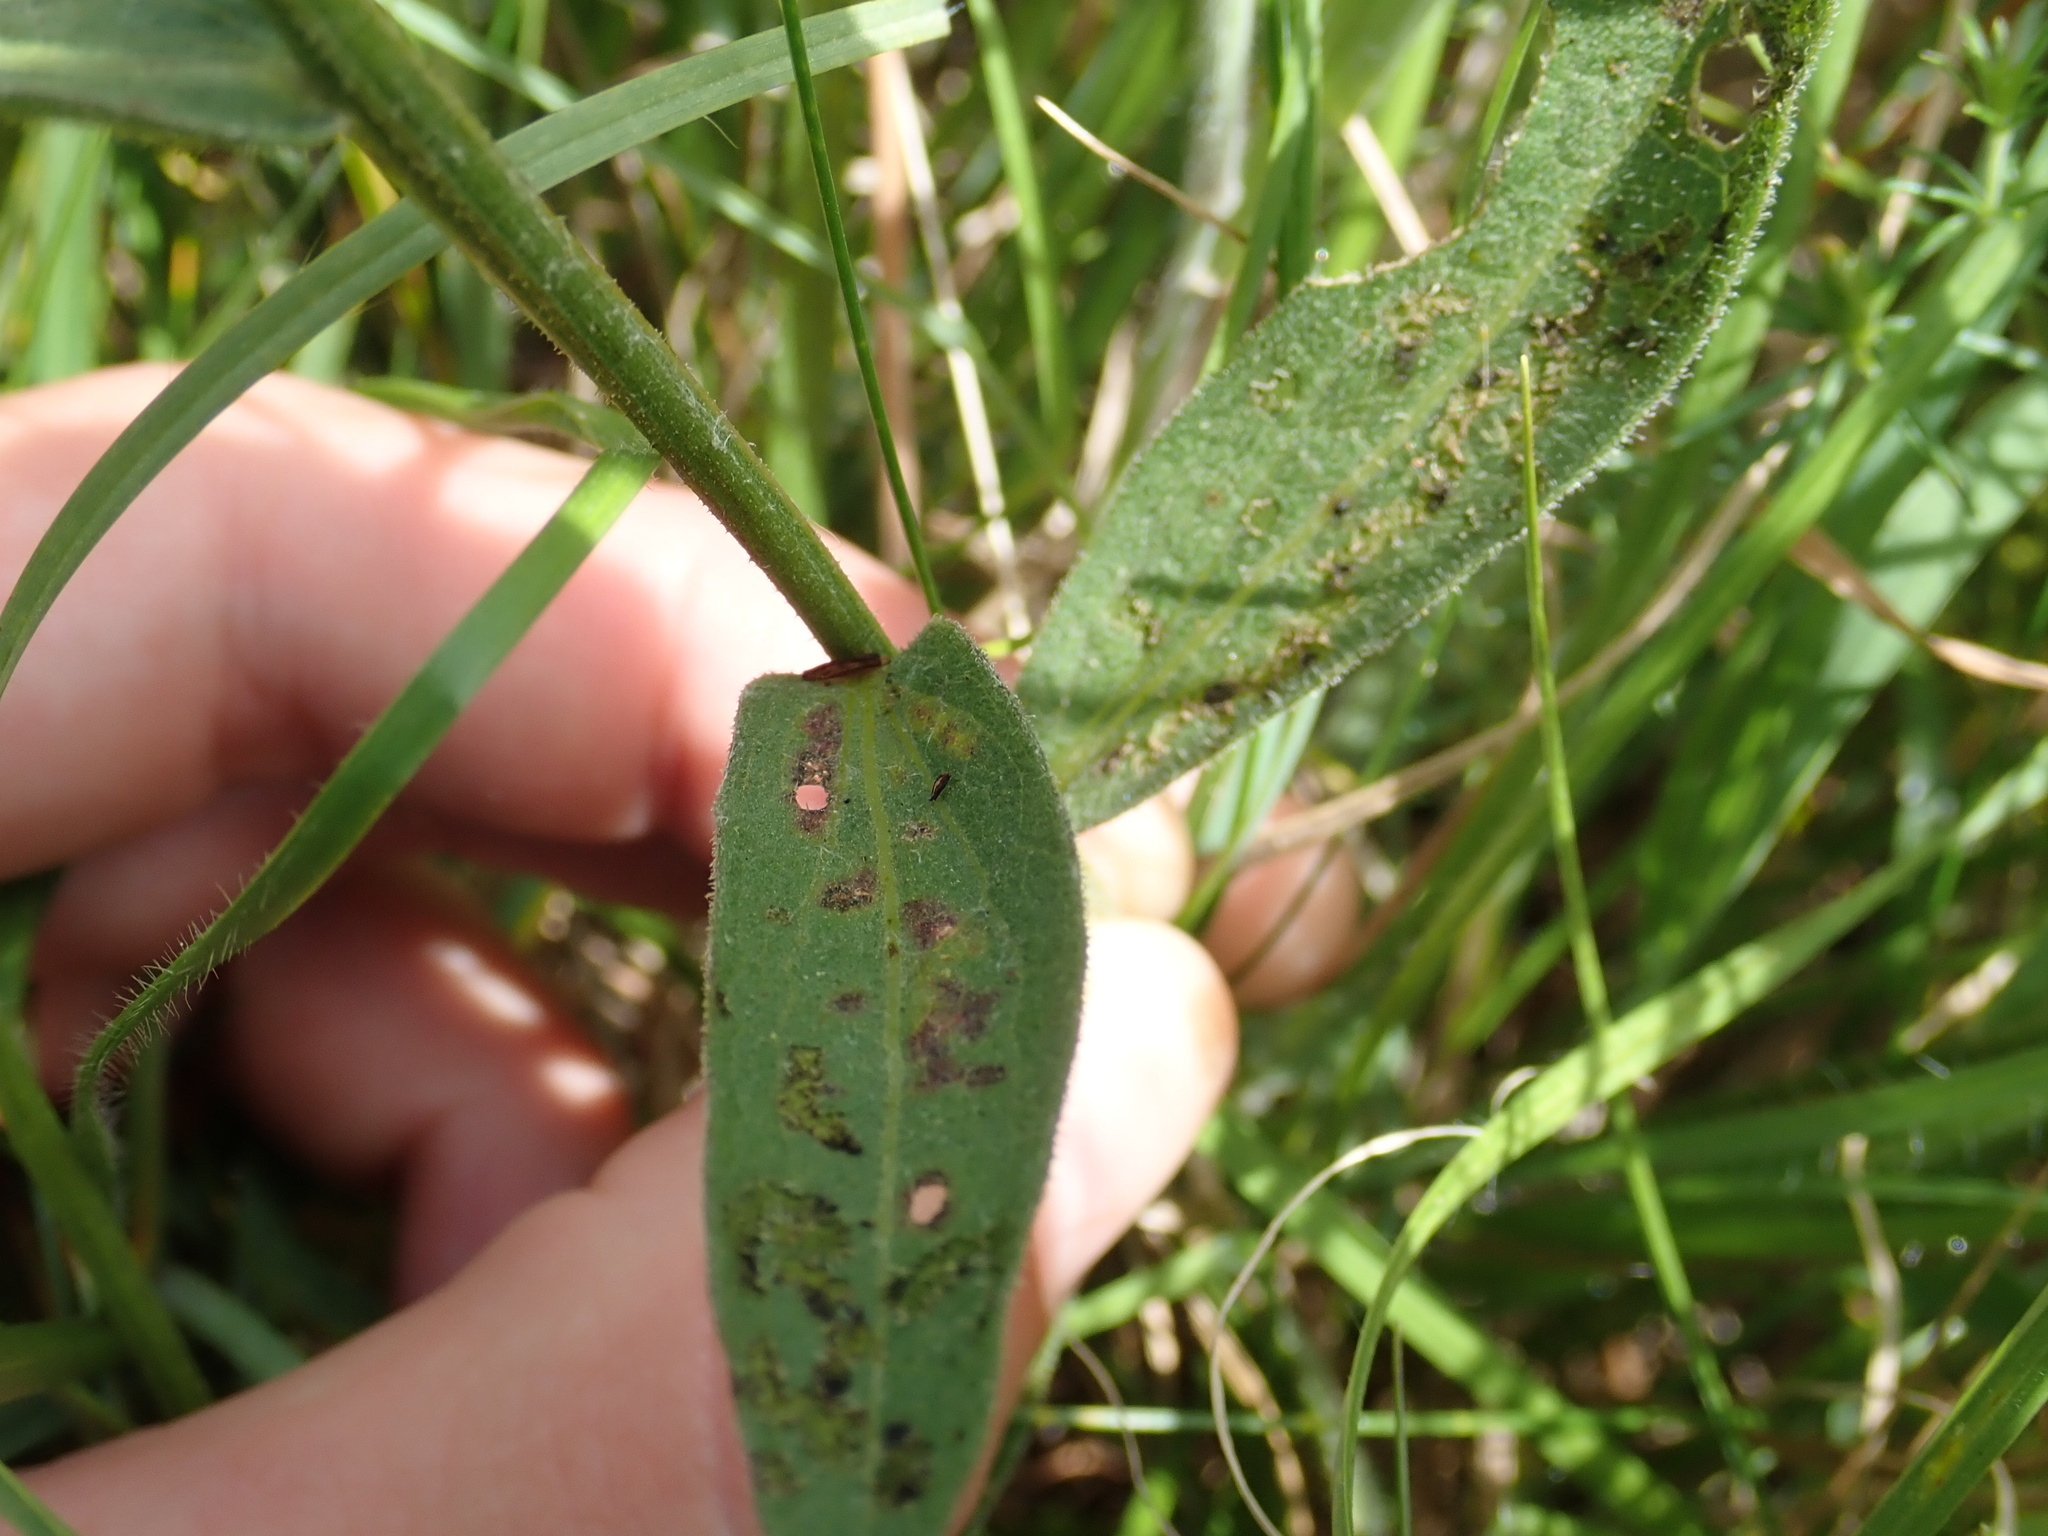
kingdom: Plantae
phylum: Tracheophyta
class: Magnoliopsida
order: Asterales
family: Asteraceae
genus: Centaurea
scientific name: Centaurea nigra
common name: Lesser knapweed
